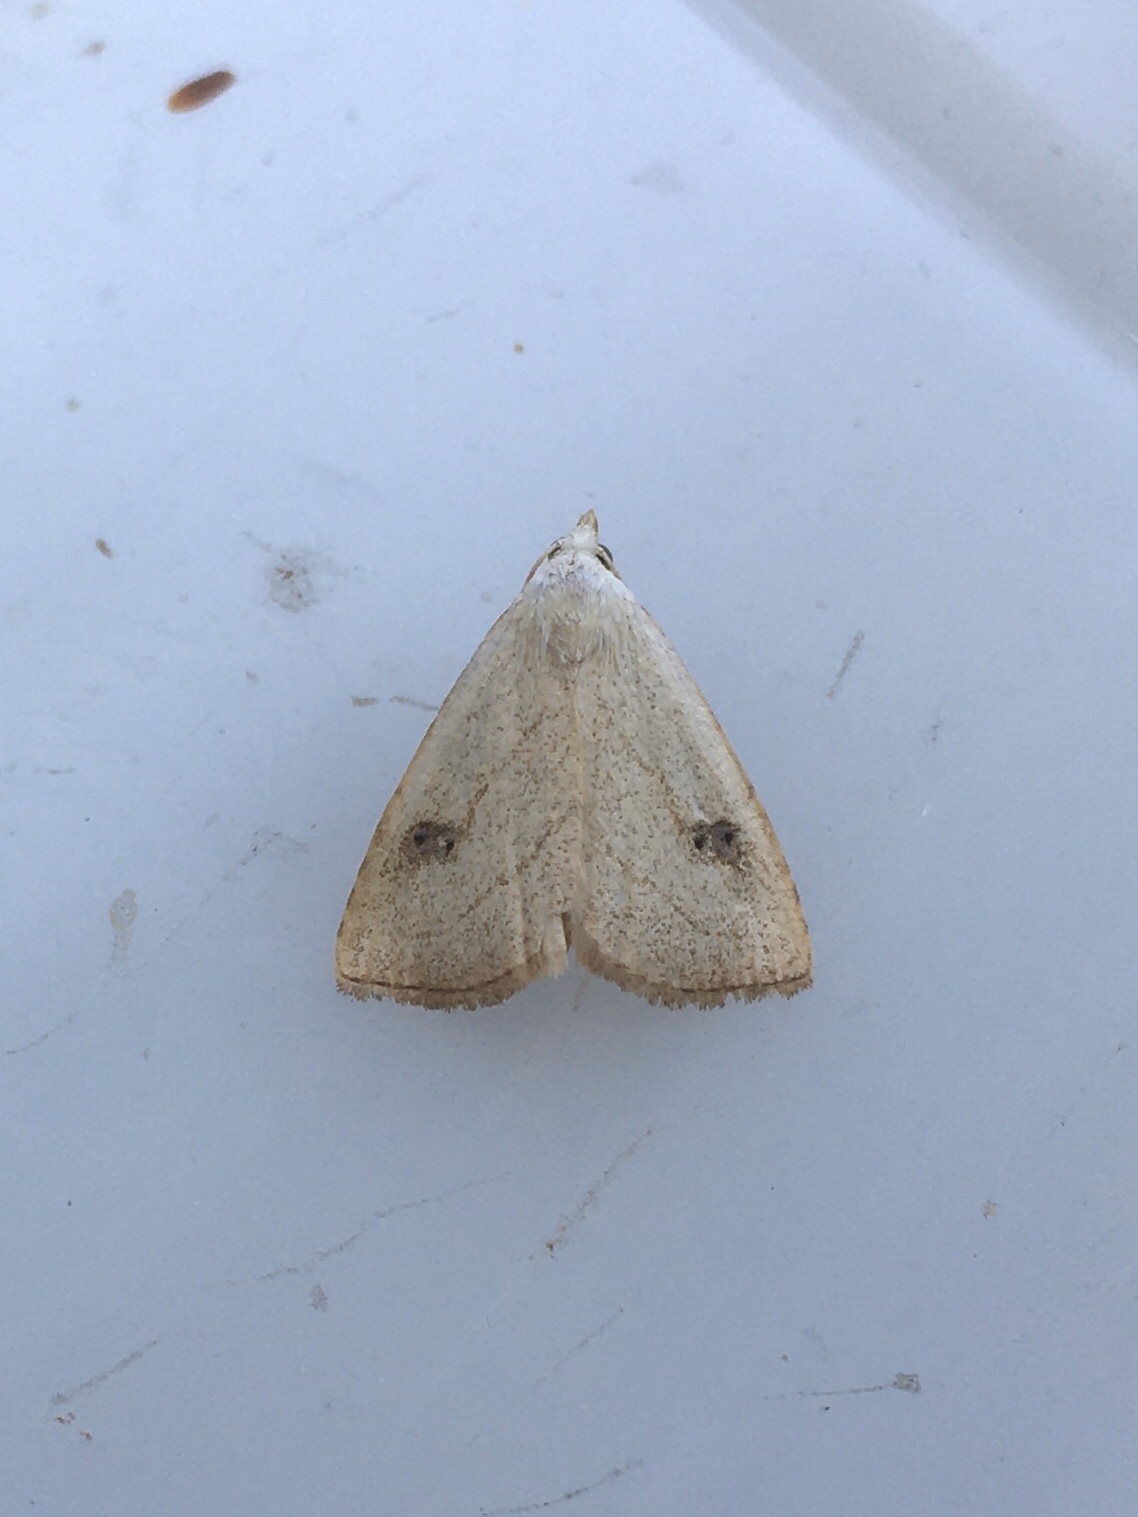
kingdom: Animalia
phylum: Arthropoda
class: Insecta
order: Lepidoptera
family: Erebidae
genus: Rivula
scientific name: Rivula propinqualis
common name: Spotted grass moth
